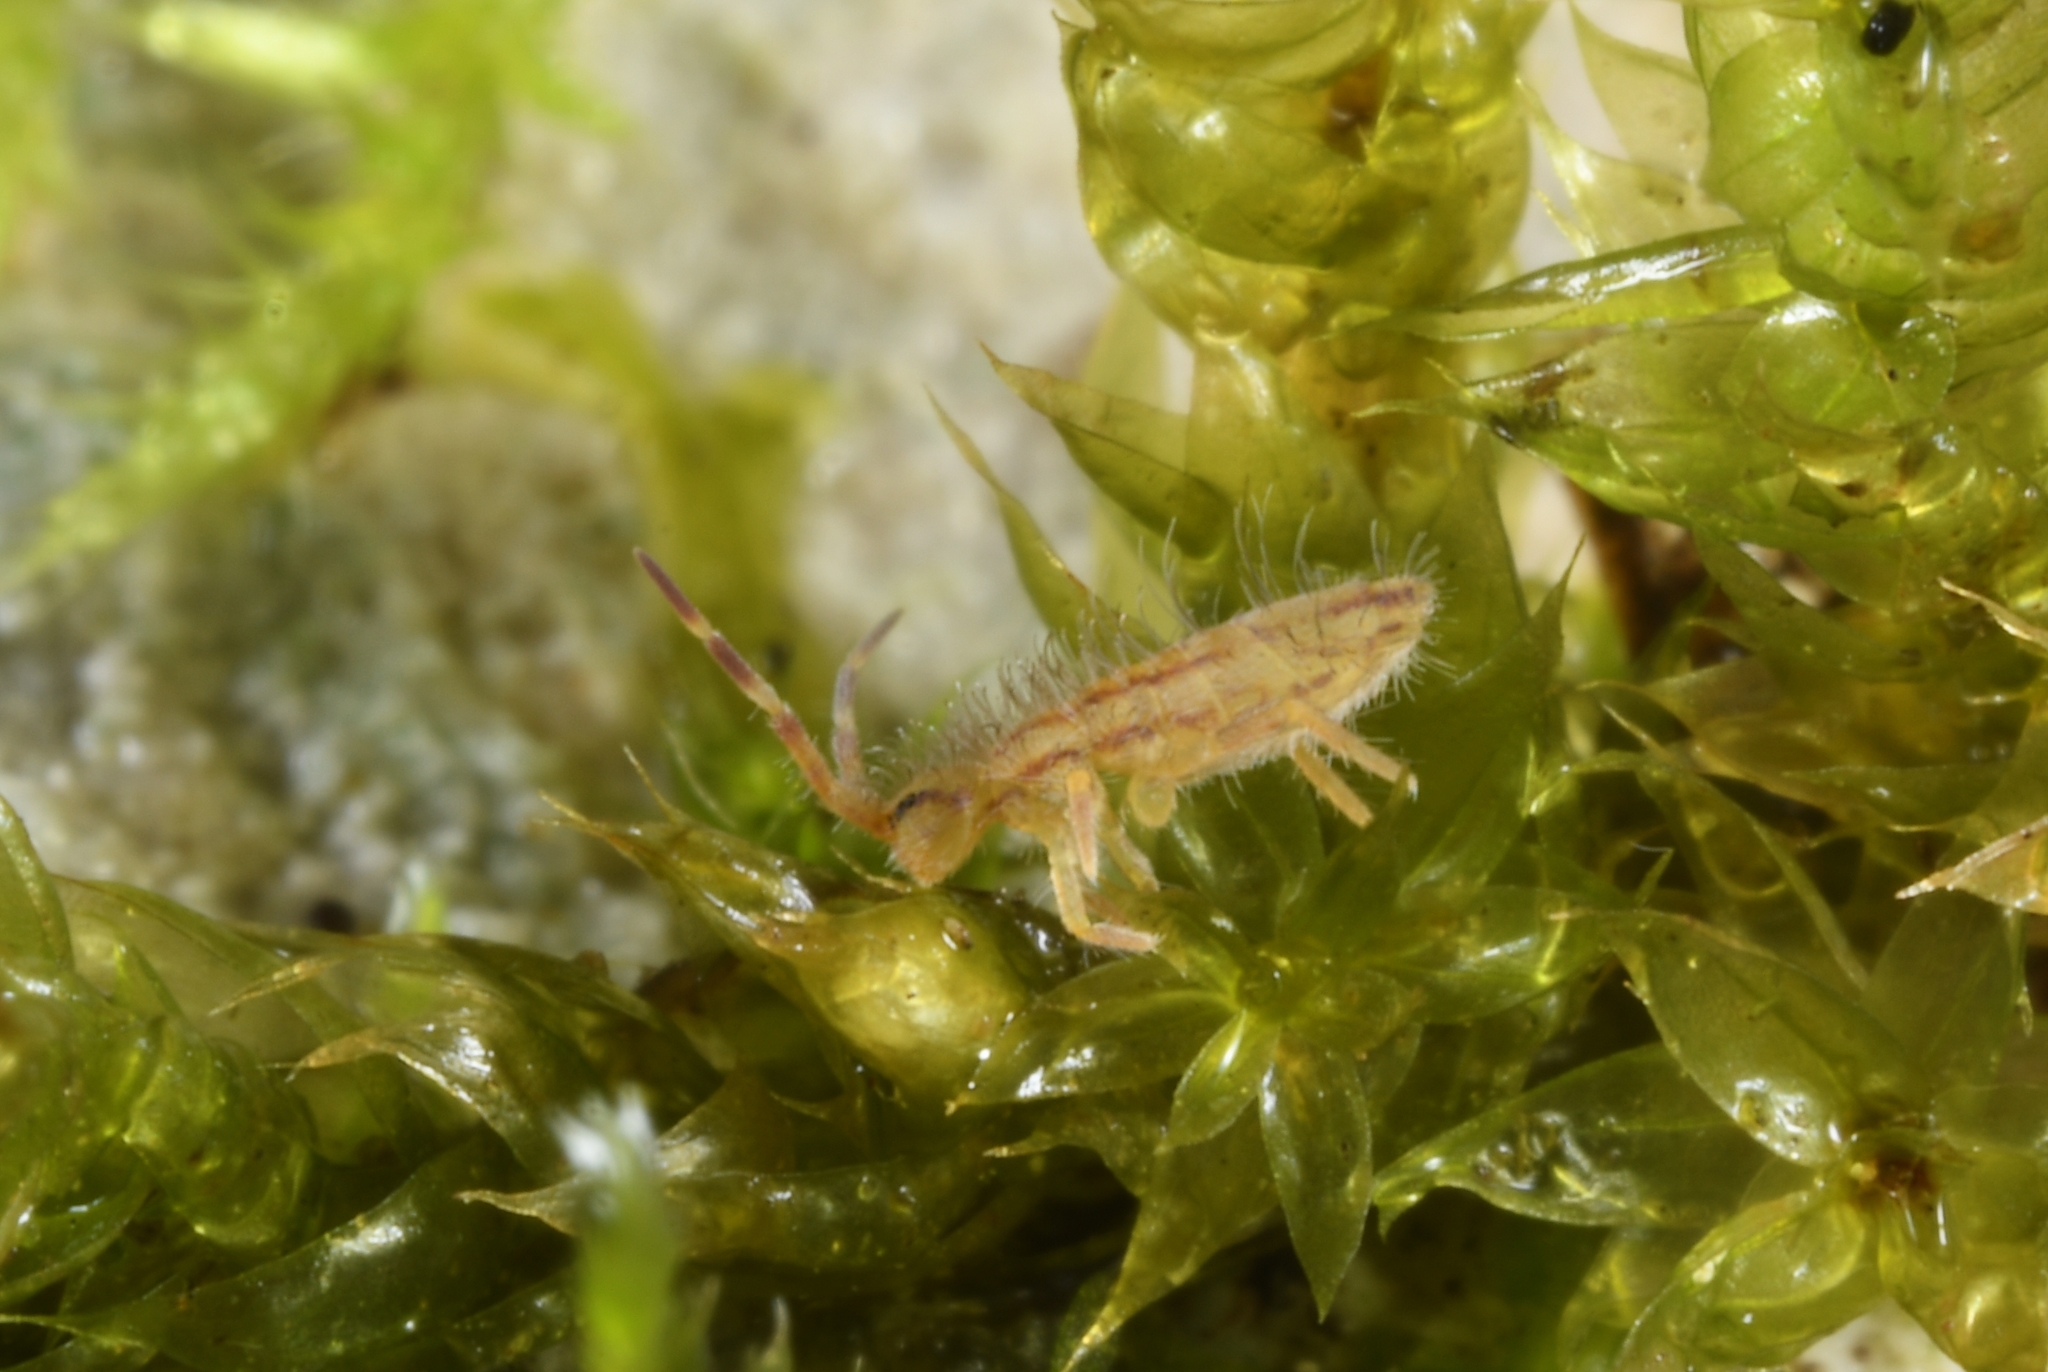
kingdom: Animalia
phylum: Arthropoda
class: Collembola
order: Entomobryomorpha
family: Entomobryidae
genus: Entomobrya
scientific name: Entomobrya nivalis
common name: Cosmopolitan springtail
